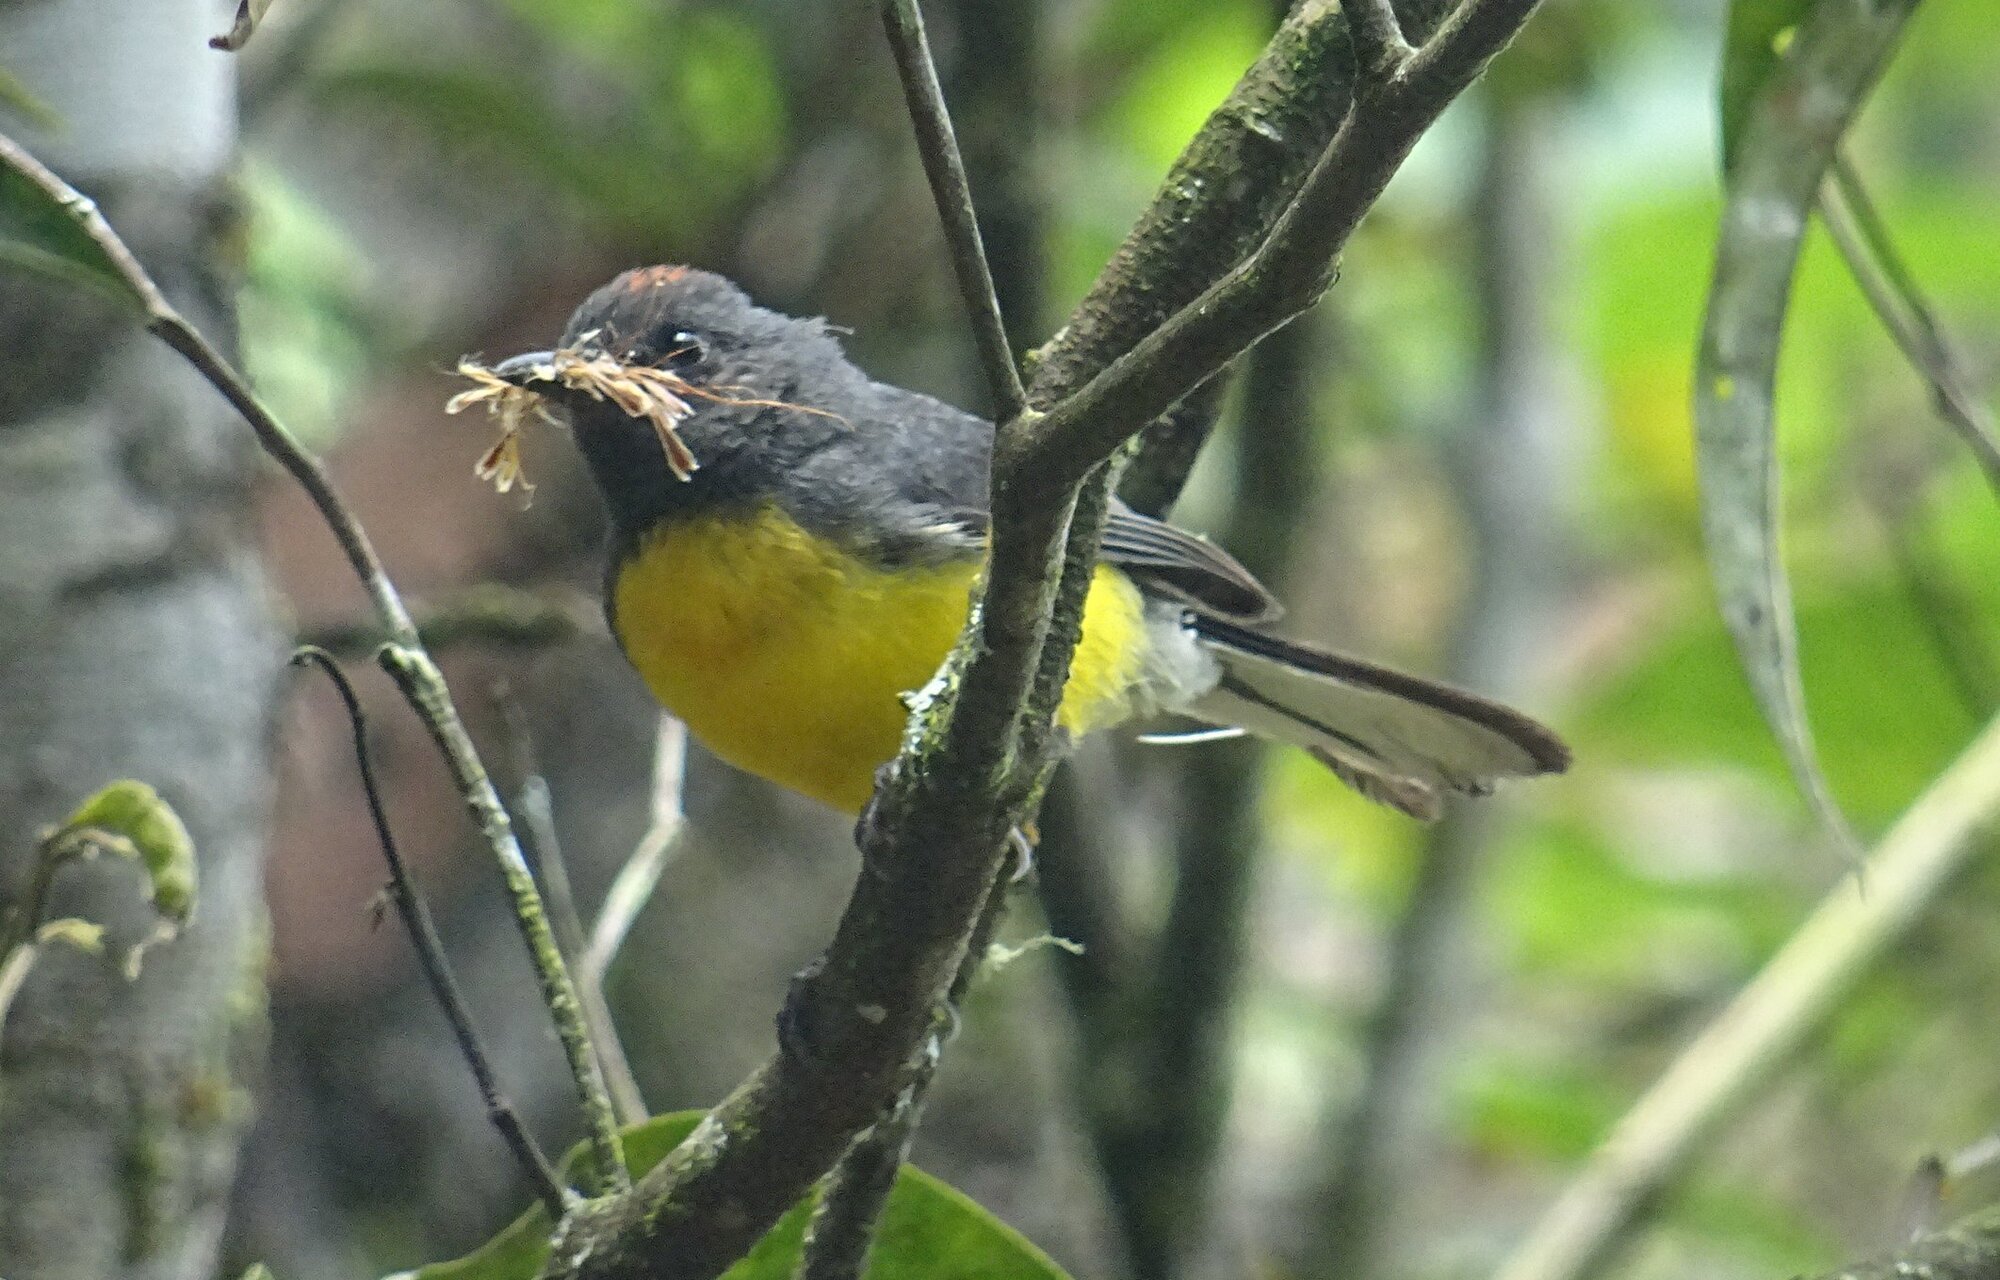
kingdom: Animalia
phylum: Chordata
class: Aves
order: Passeriformes
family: Parulidae
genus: Myioborus
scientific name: Myioborus miniatus
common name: Slate-throated redstart
